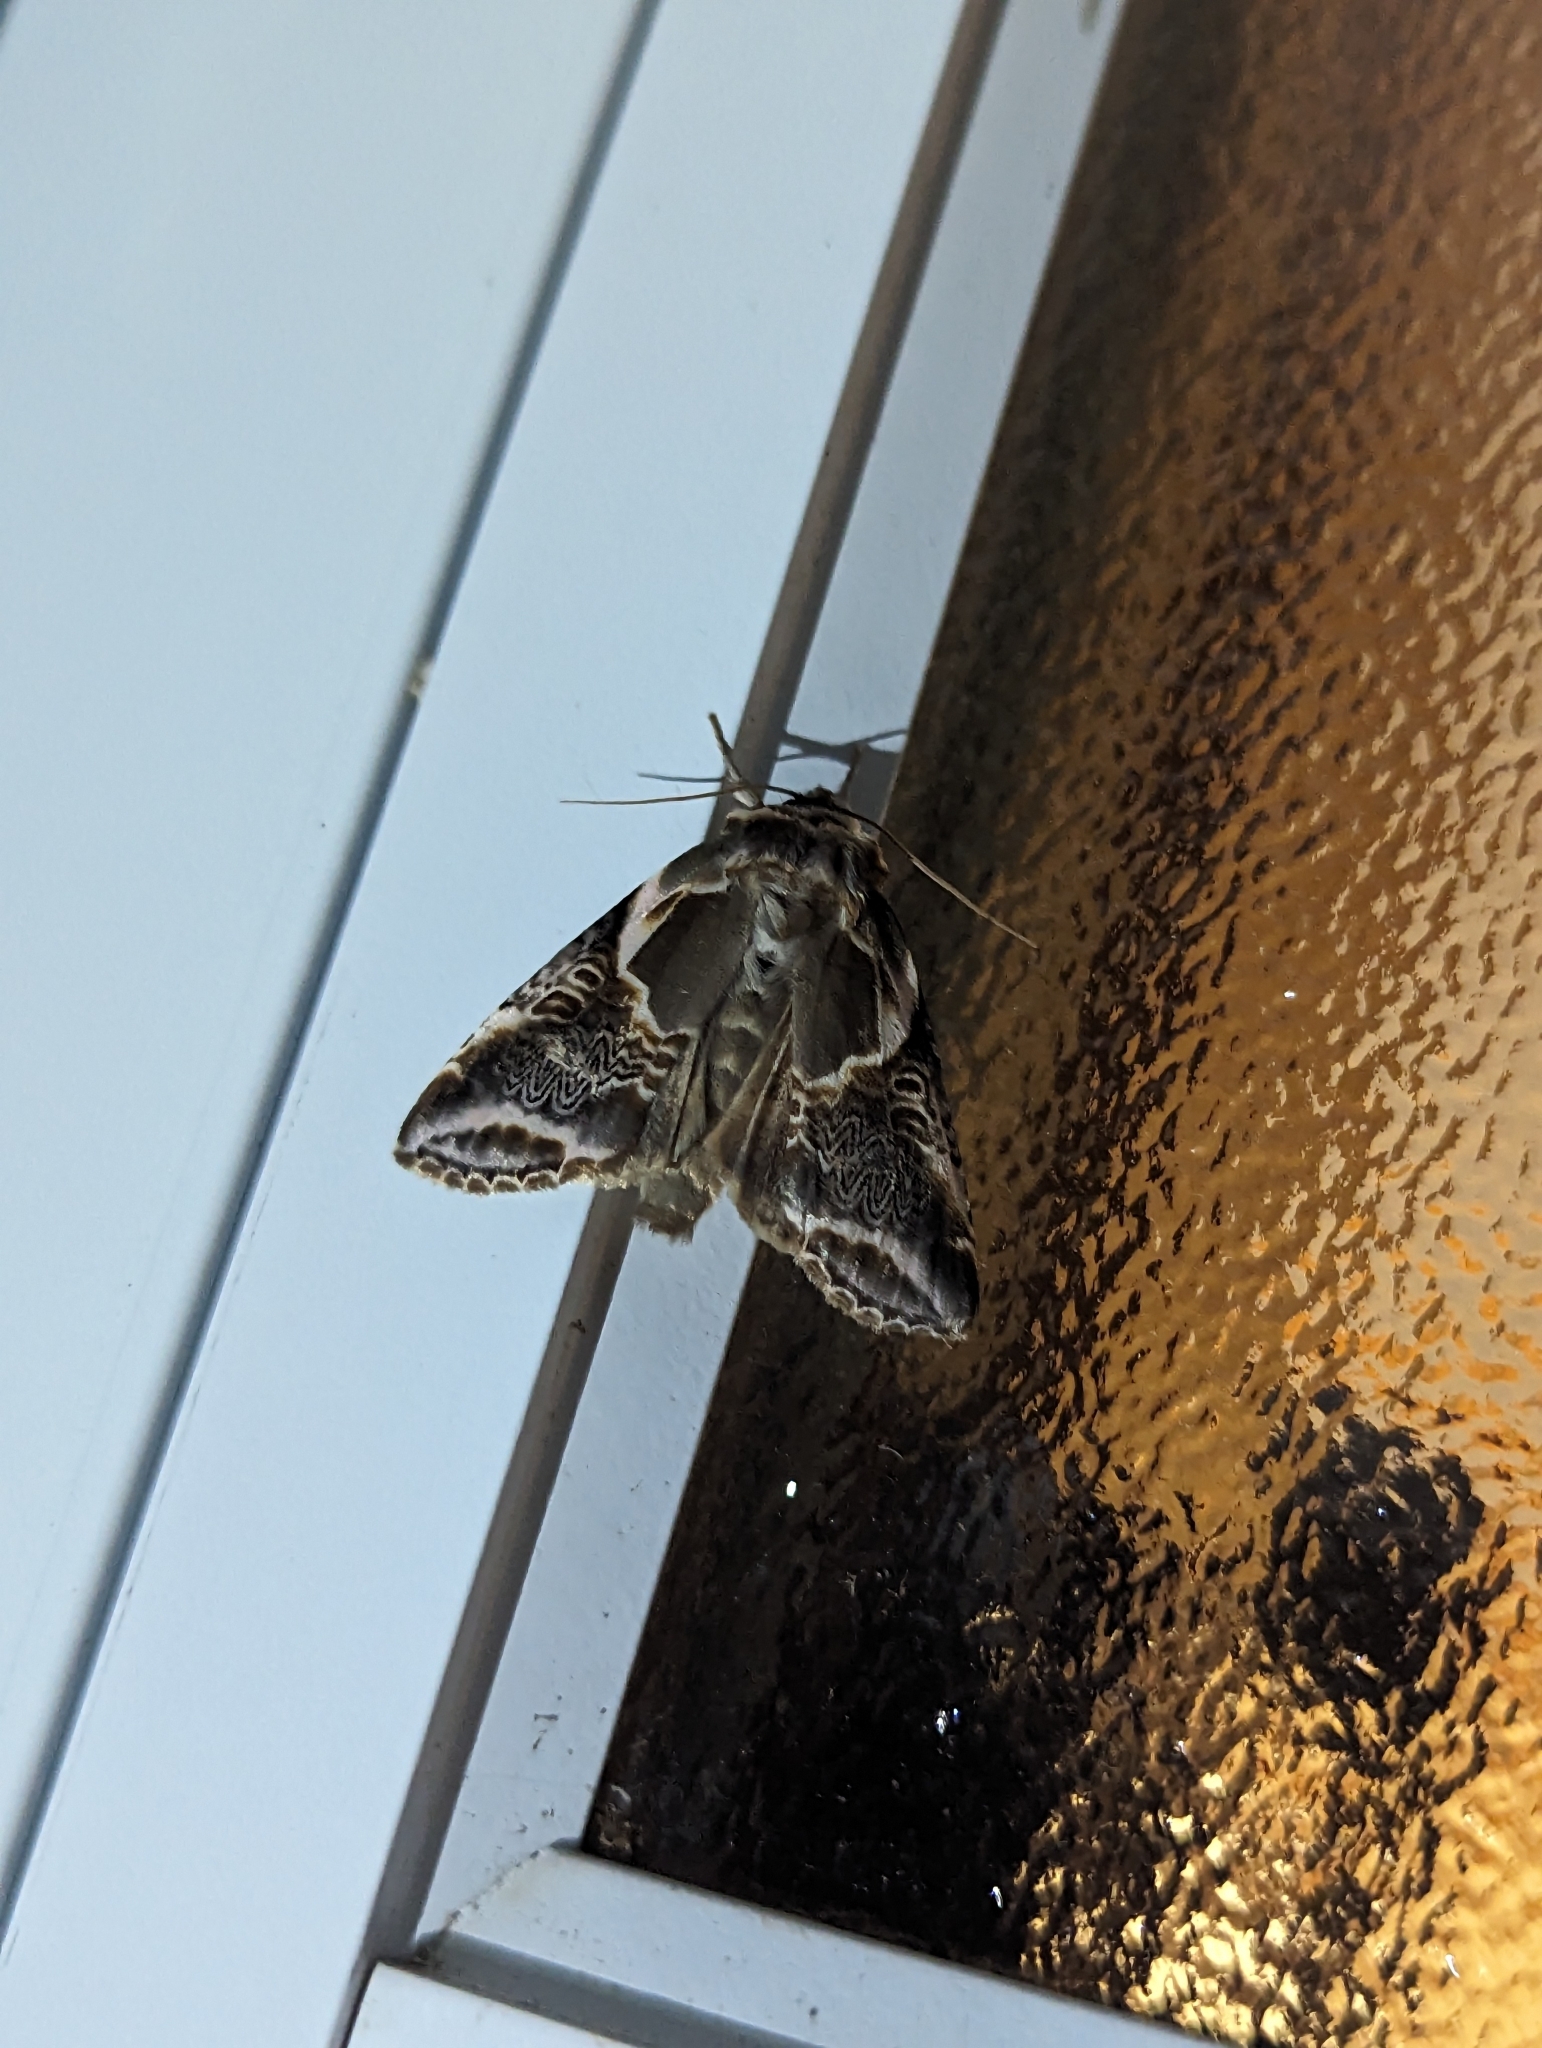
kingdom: Animalia
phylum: Arthropoda
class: Insecta
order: Lepidoptera
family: Drepanidae
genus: Habrosyne
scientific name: Habrosyne scripta
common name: Lettered habrosyne moth
